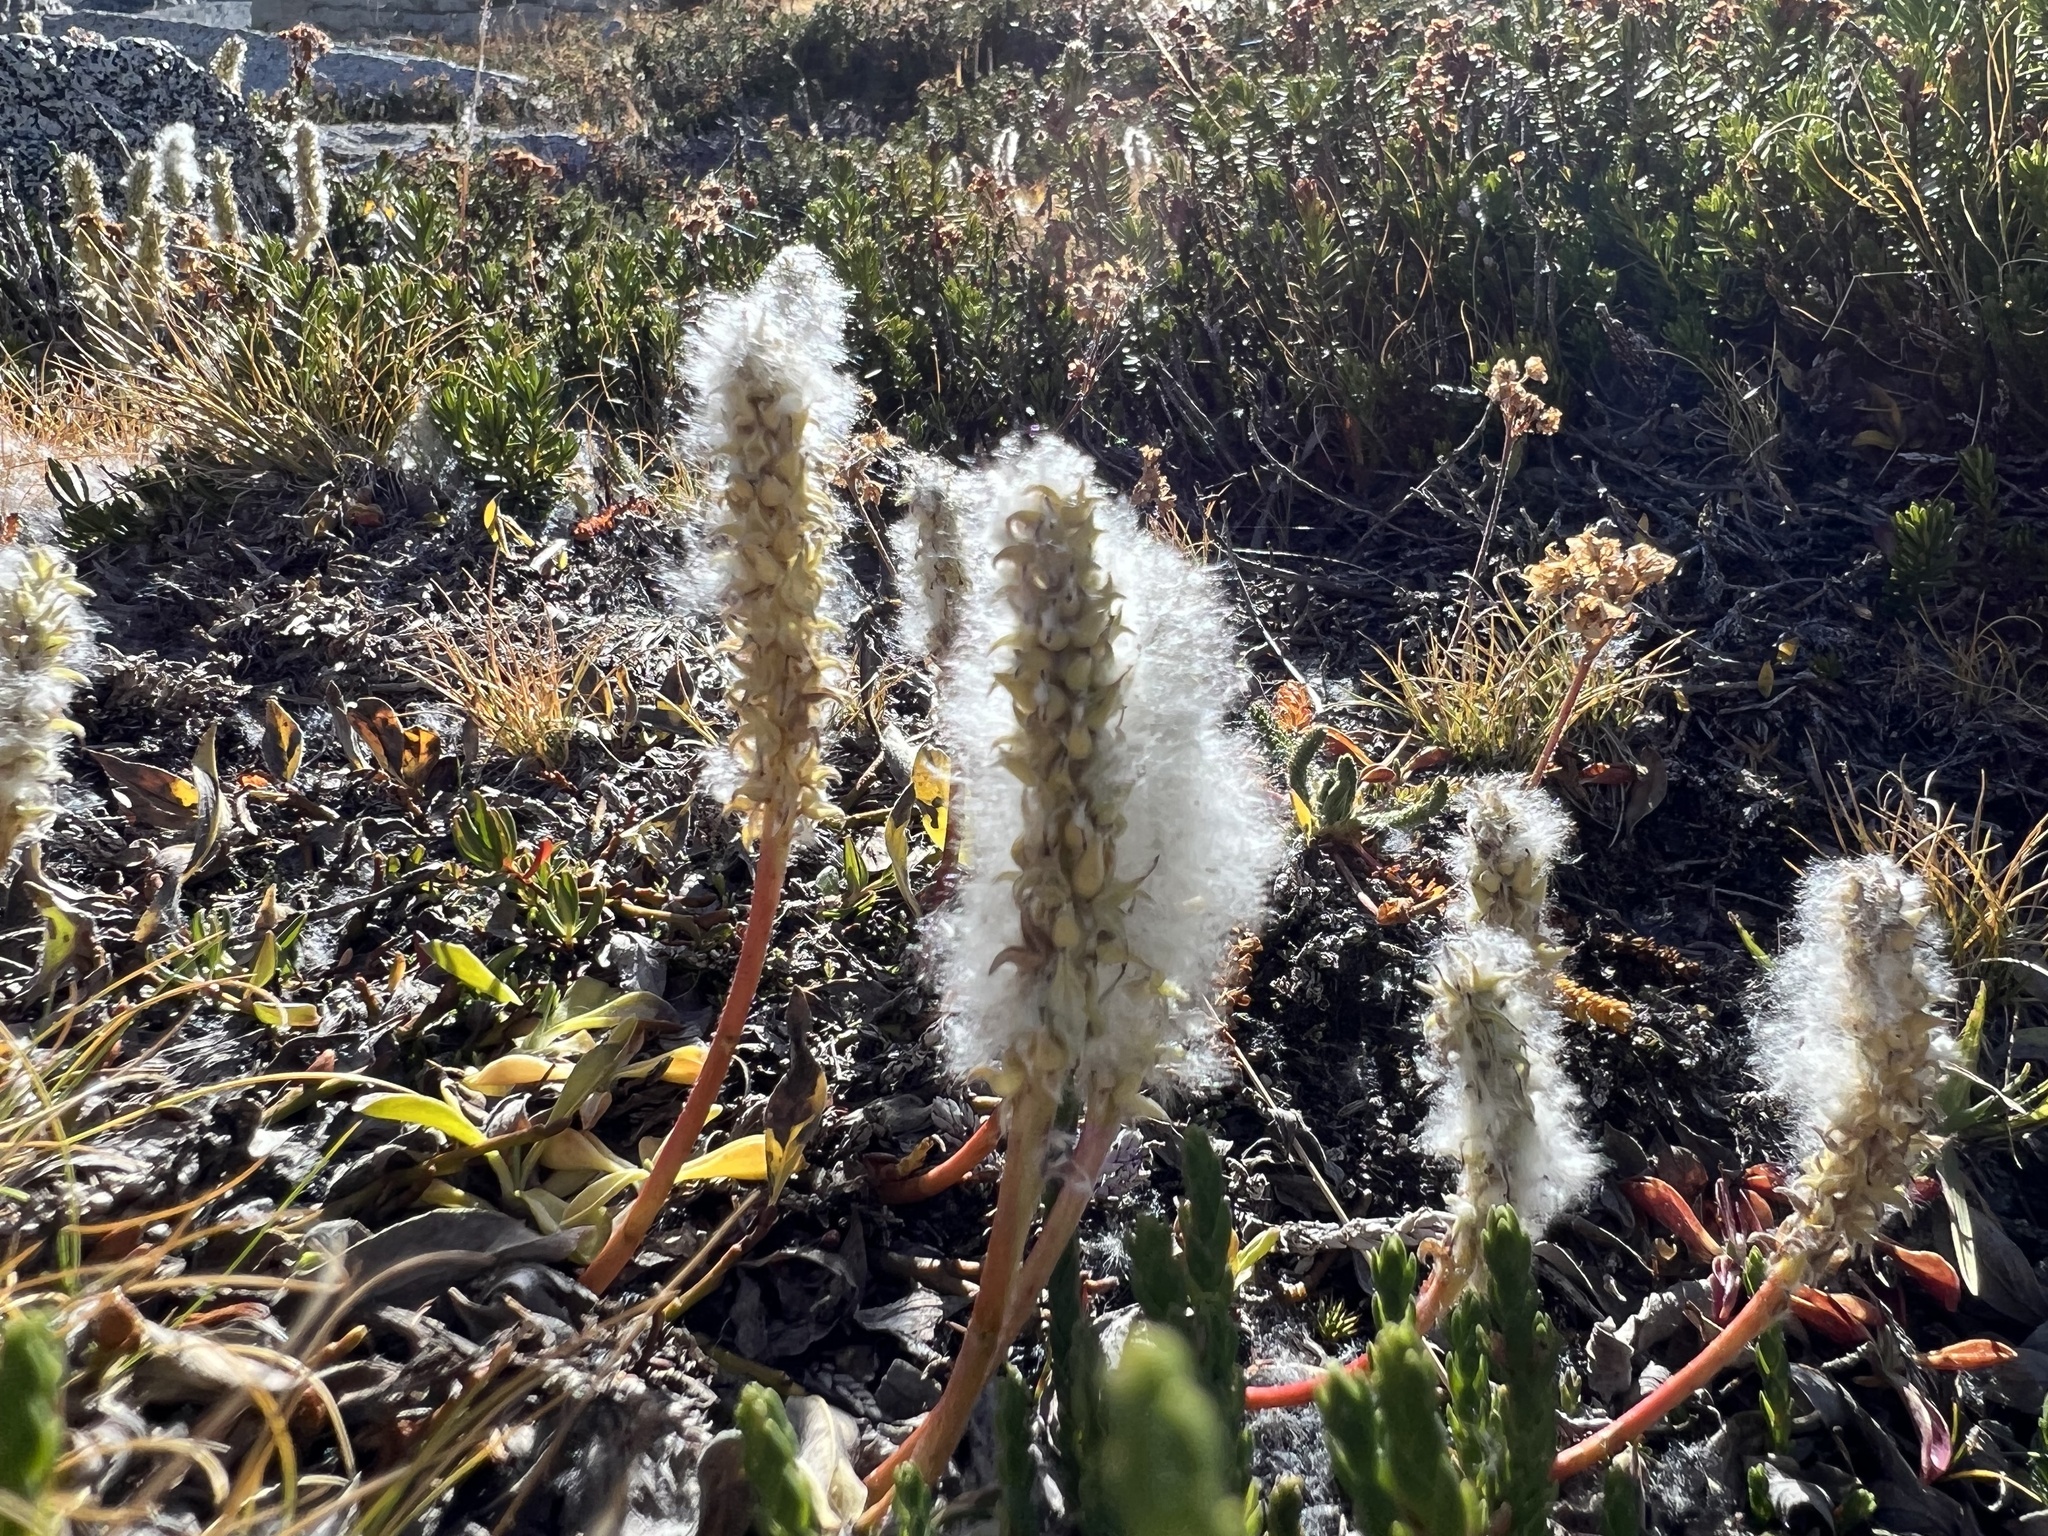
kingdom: Plantae
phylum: Tracheophyta
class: Magnoliopsida
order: Malpighiales
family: Salicaceae
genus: Salix
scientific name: Salix petrophila
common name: Rocky mountain willow
